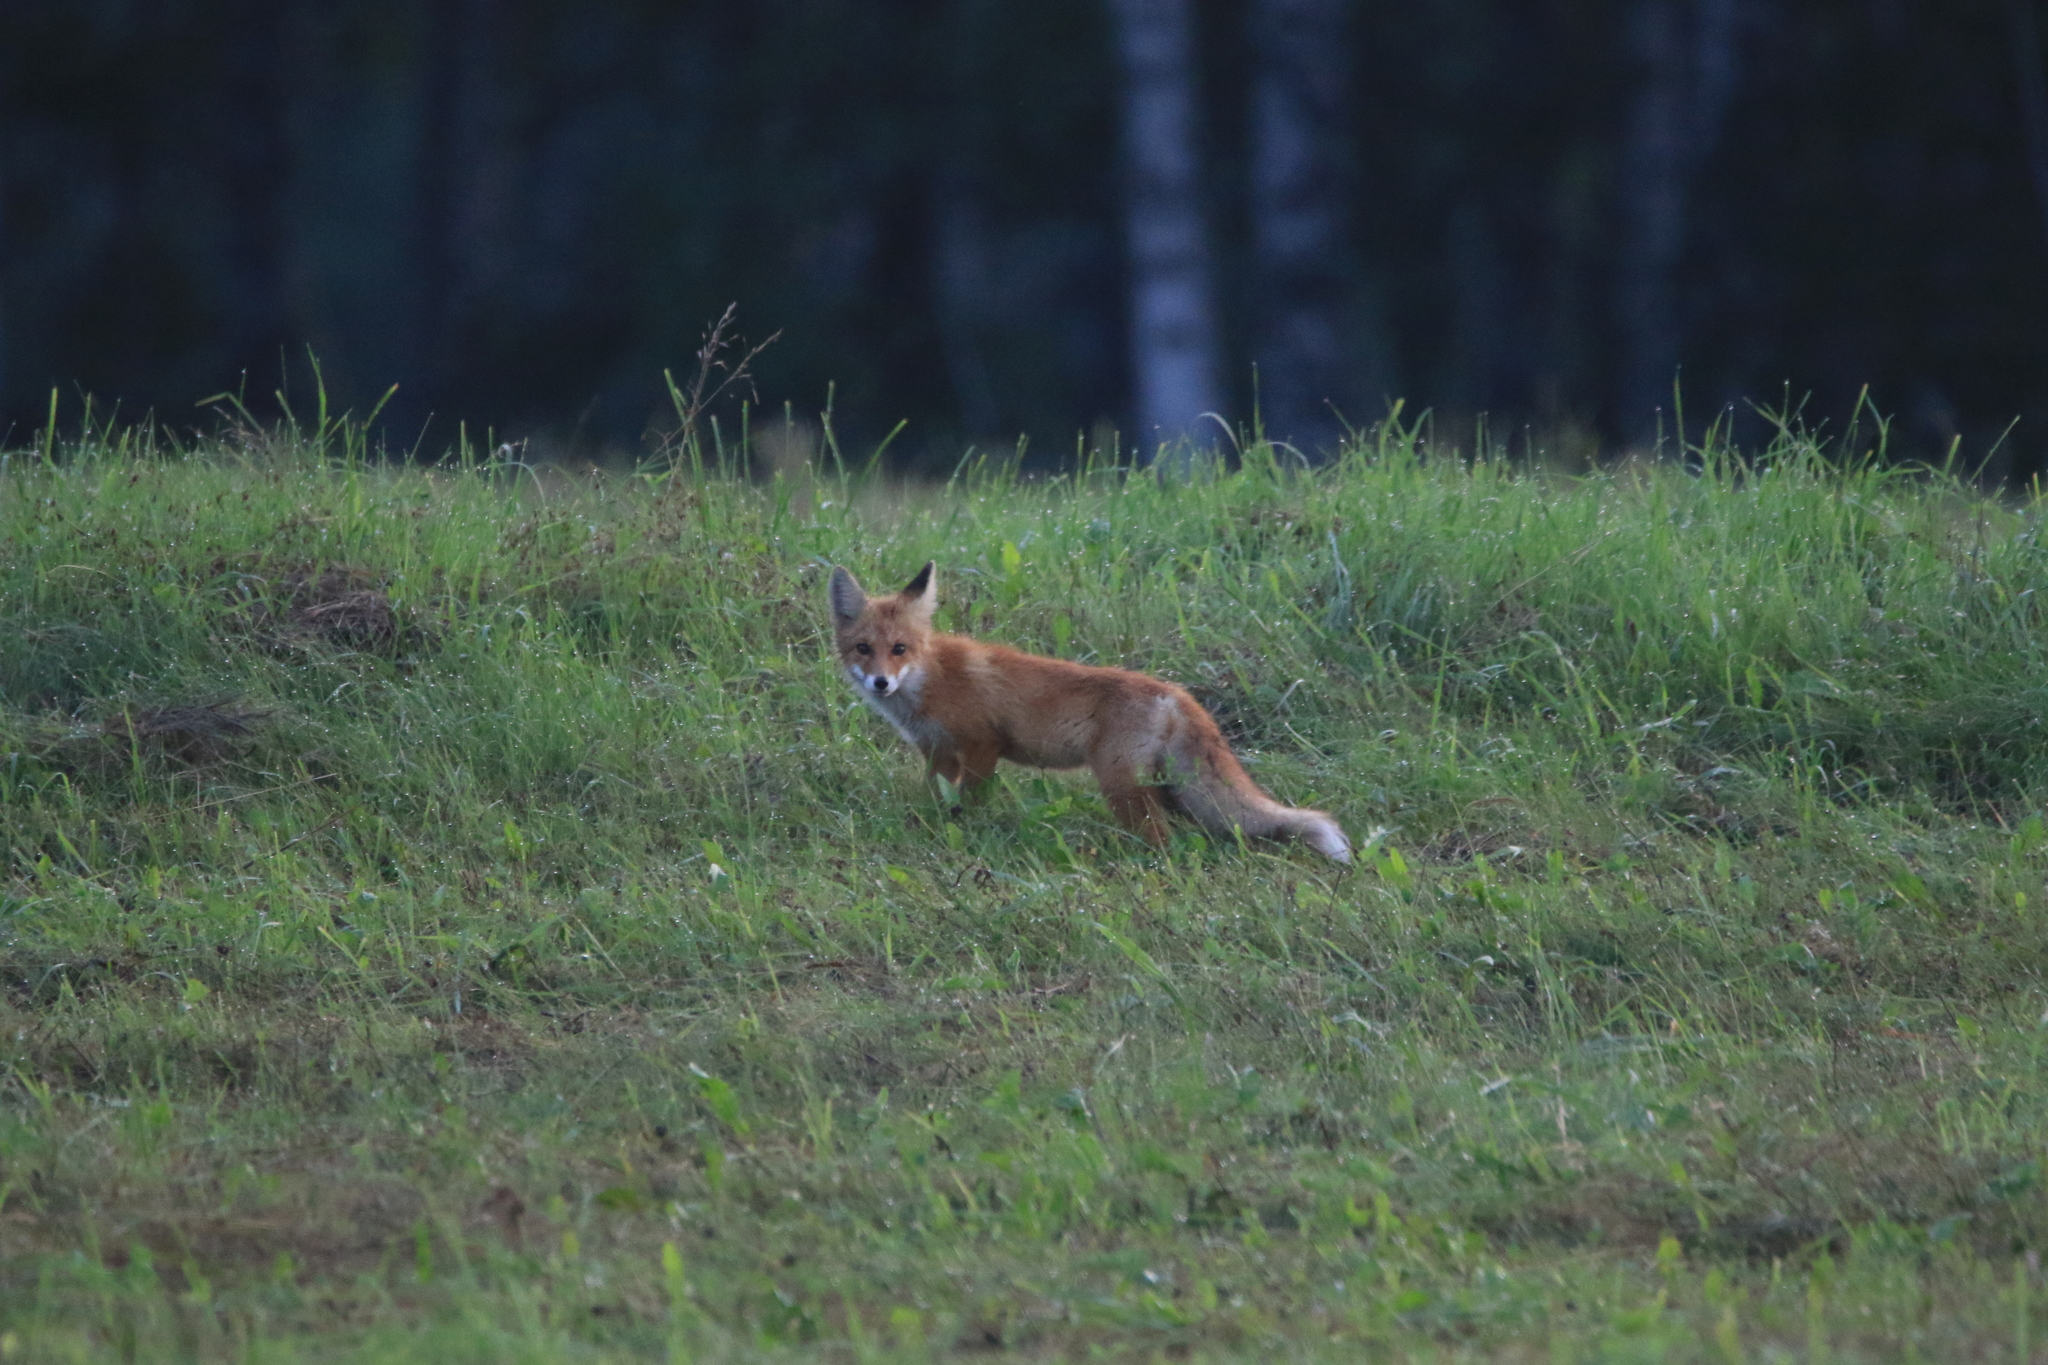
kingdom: Animalia
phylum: Chordata
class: Mammalia
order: Carnivora
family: Canidae
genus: Vulpes
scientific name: Vulpes vulpes
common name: Red fox
